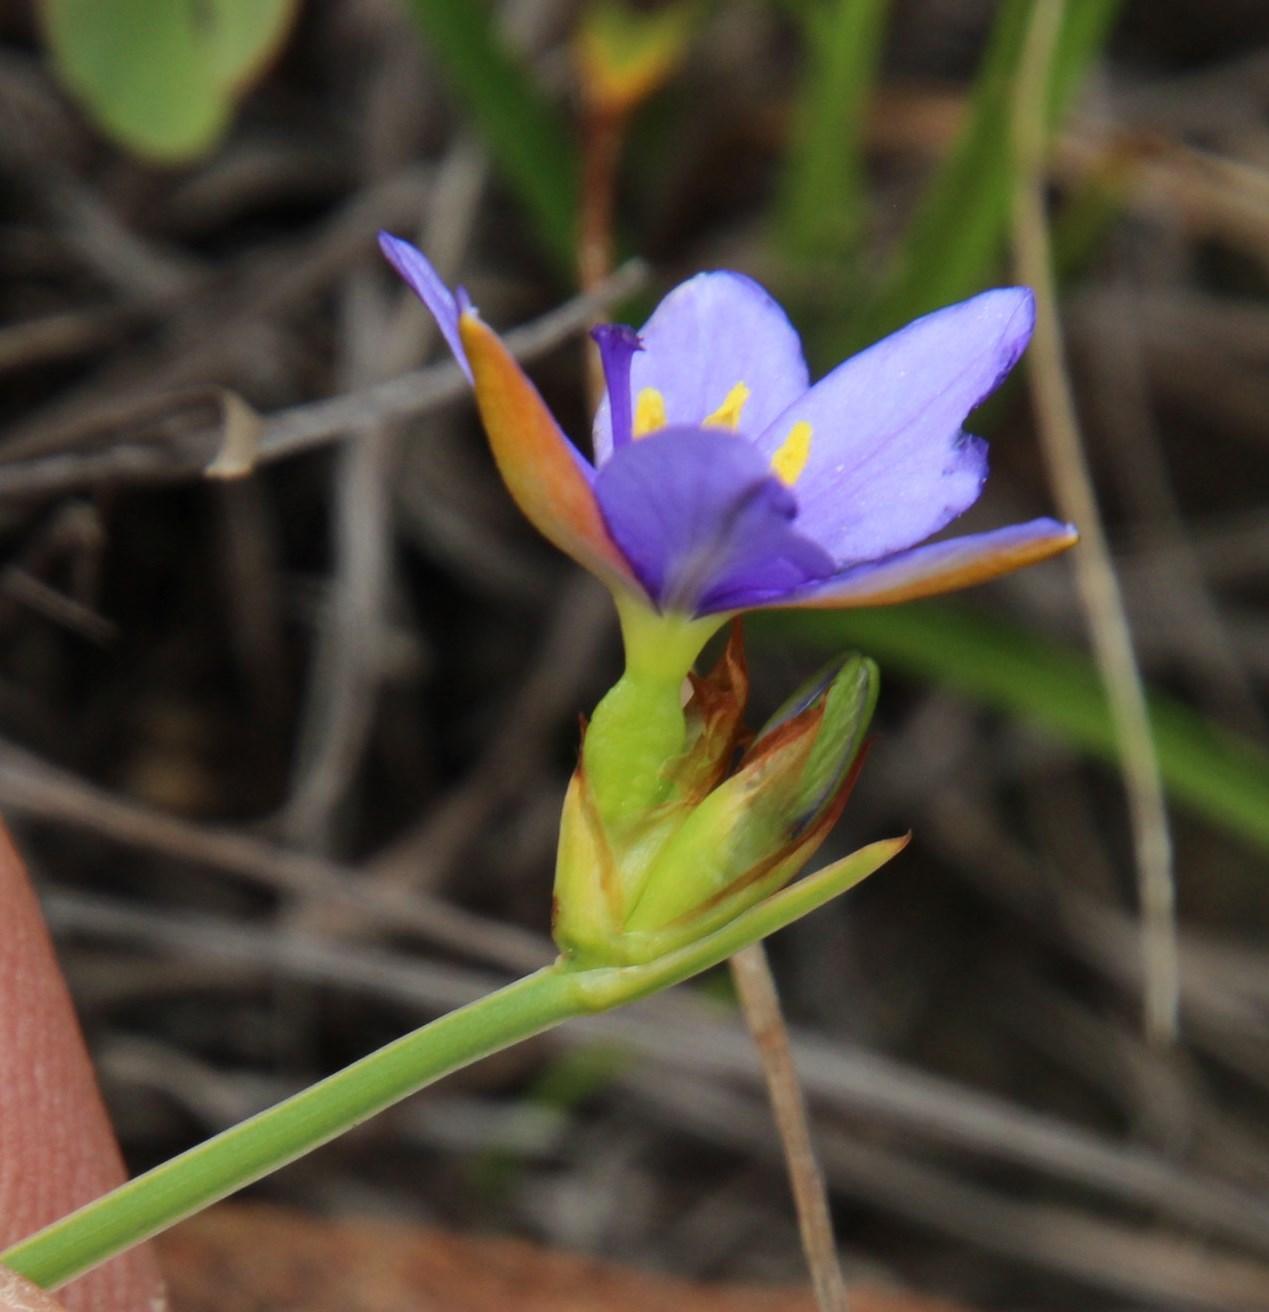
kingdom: Plantae
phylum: Tracheophyta
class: Liliopsida
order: Asparagales
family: Iridaceae
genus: Aristea
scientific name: Aristea abyssinica
